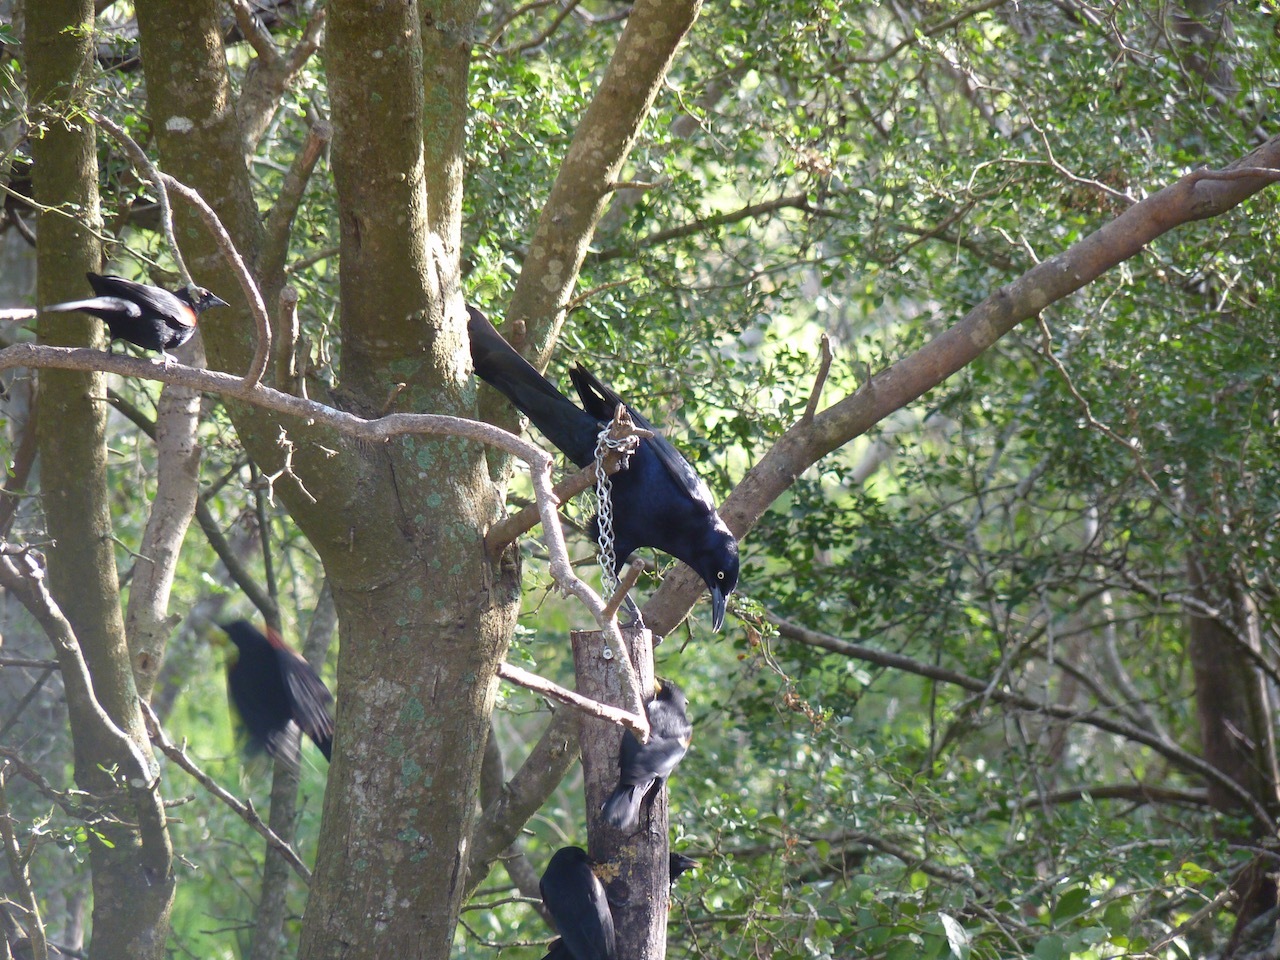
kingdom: Animalia
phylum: Chordata
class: Aves
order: Passeriformes
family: Icteridae
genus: Quiscalus
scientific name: Quiscalus mexicanus
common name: Great-tailed grackle
